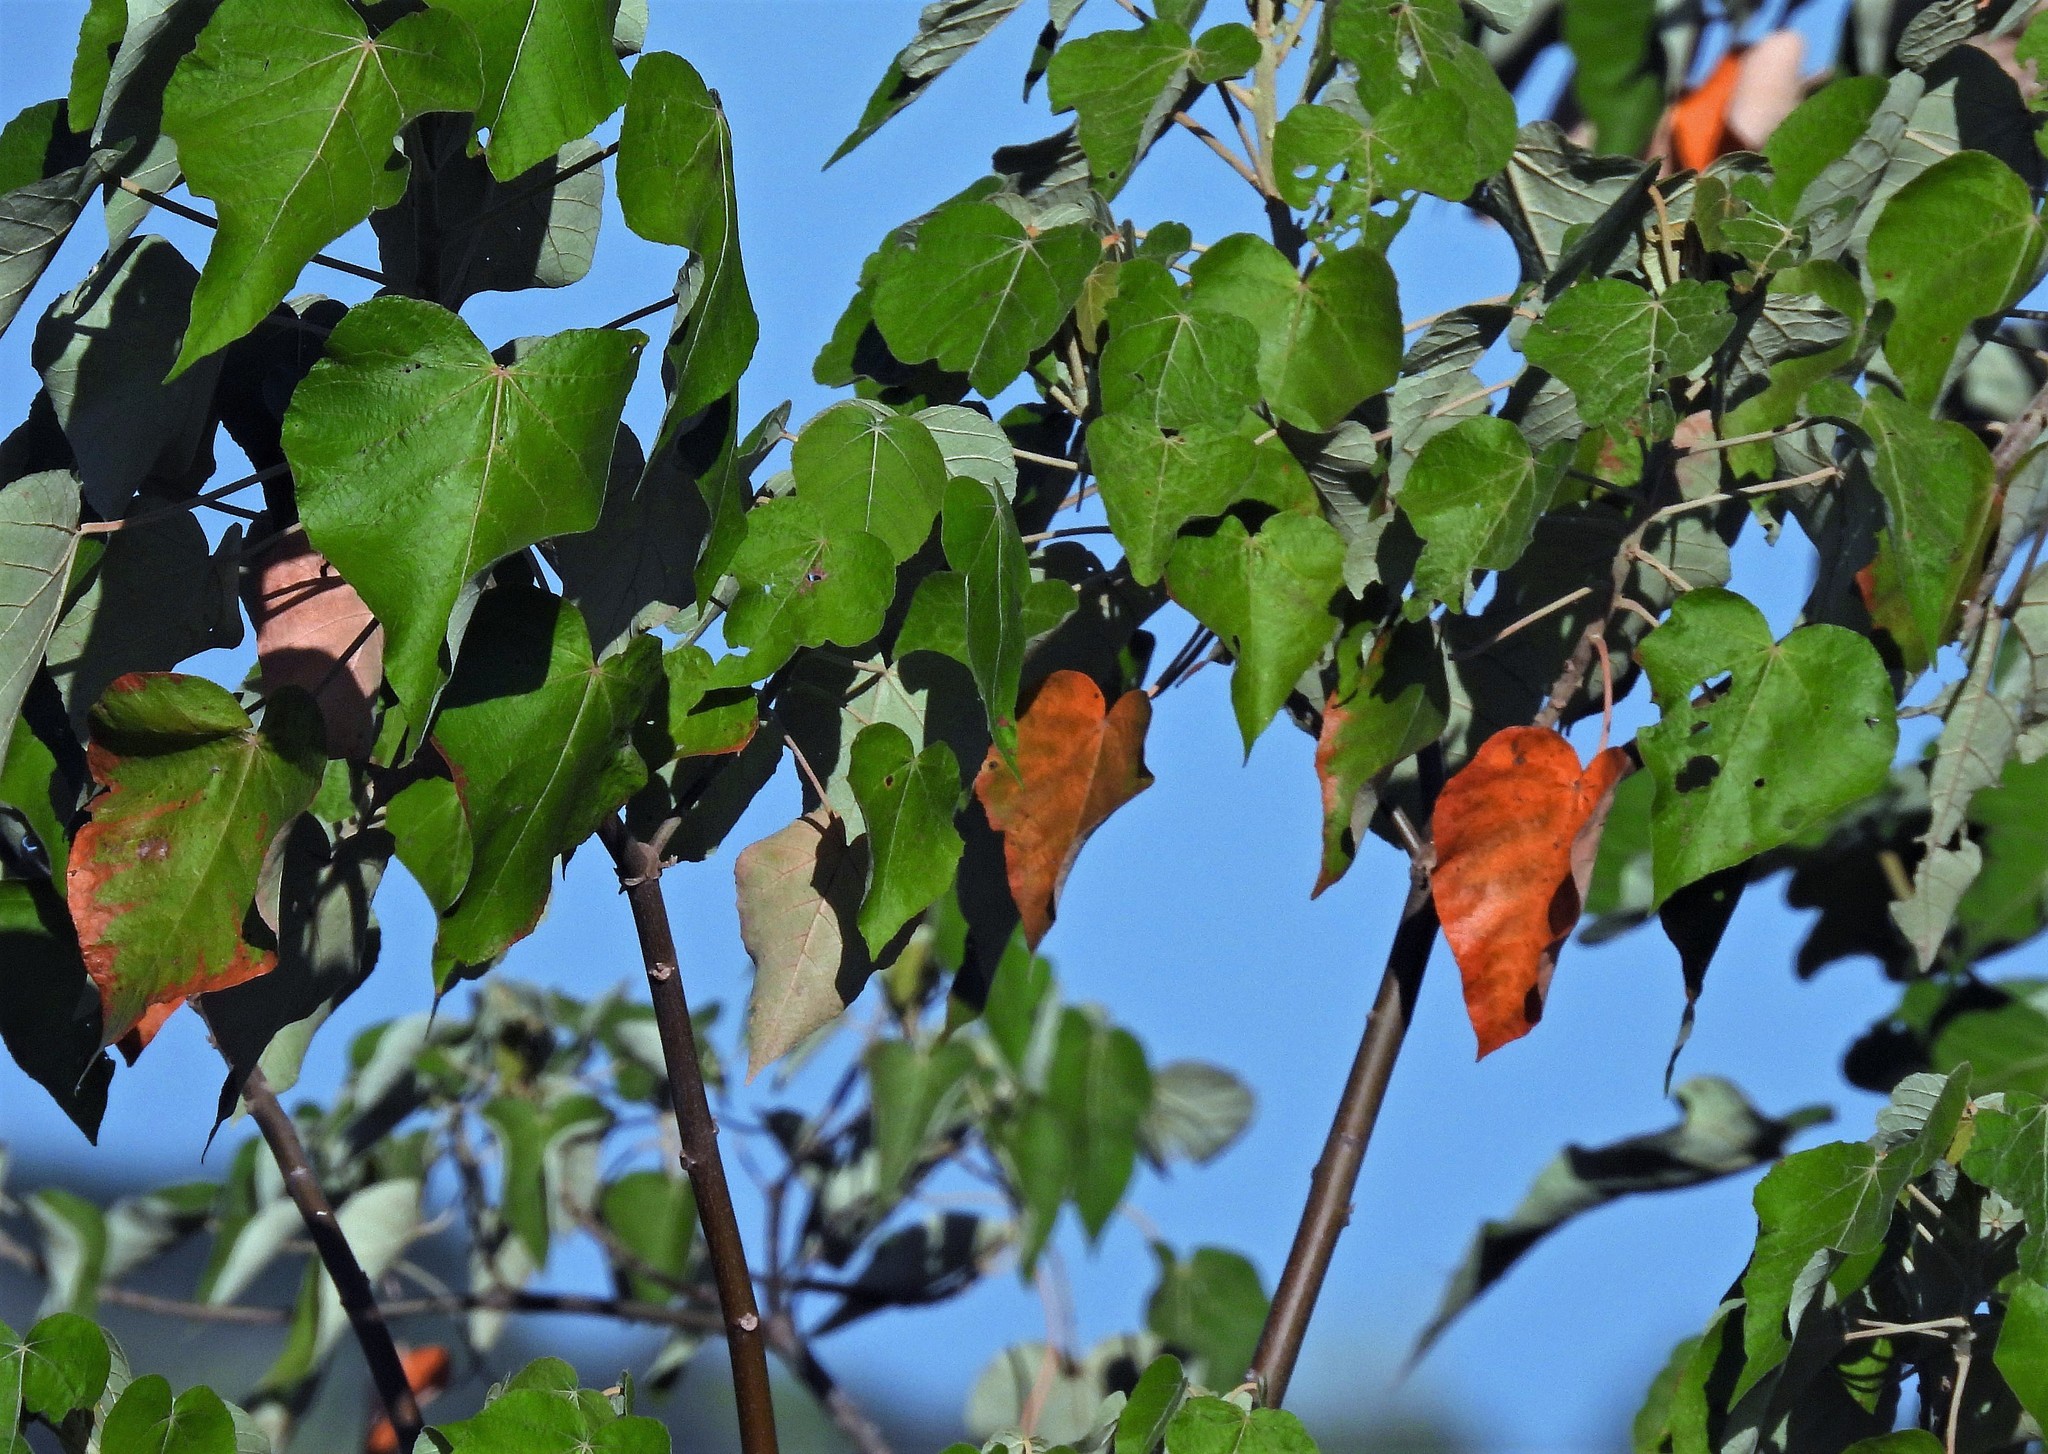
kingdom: Plantae
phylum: Tracheophyta
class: Magnoliopsida
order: Malpighiales
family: Euphorbiaceae
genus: Croton
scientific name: Croton urucurana
